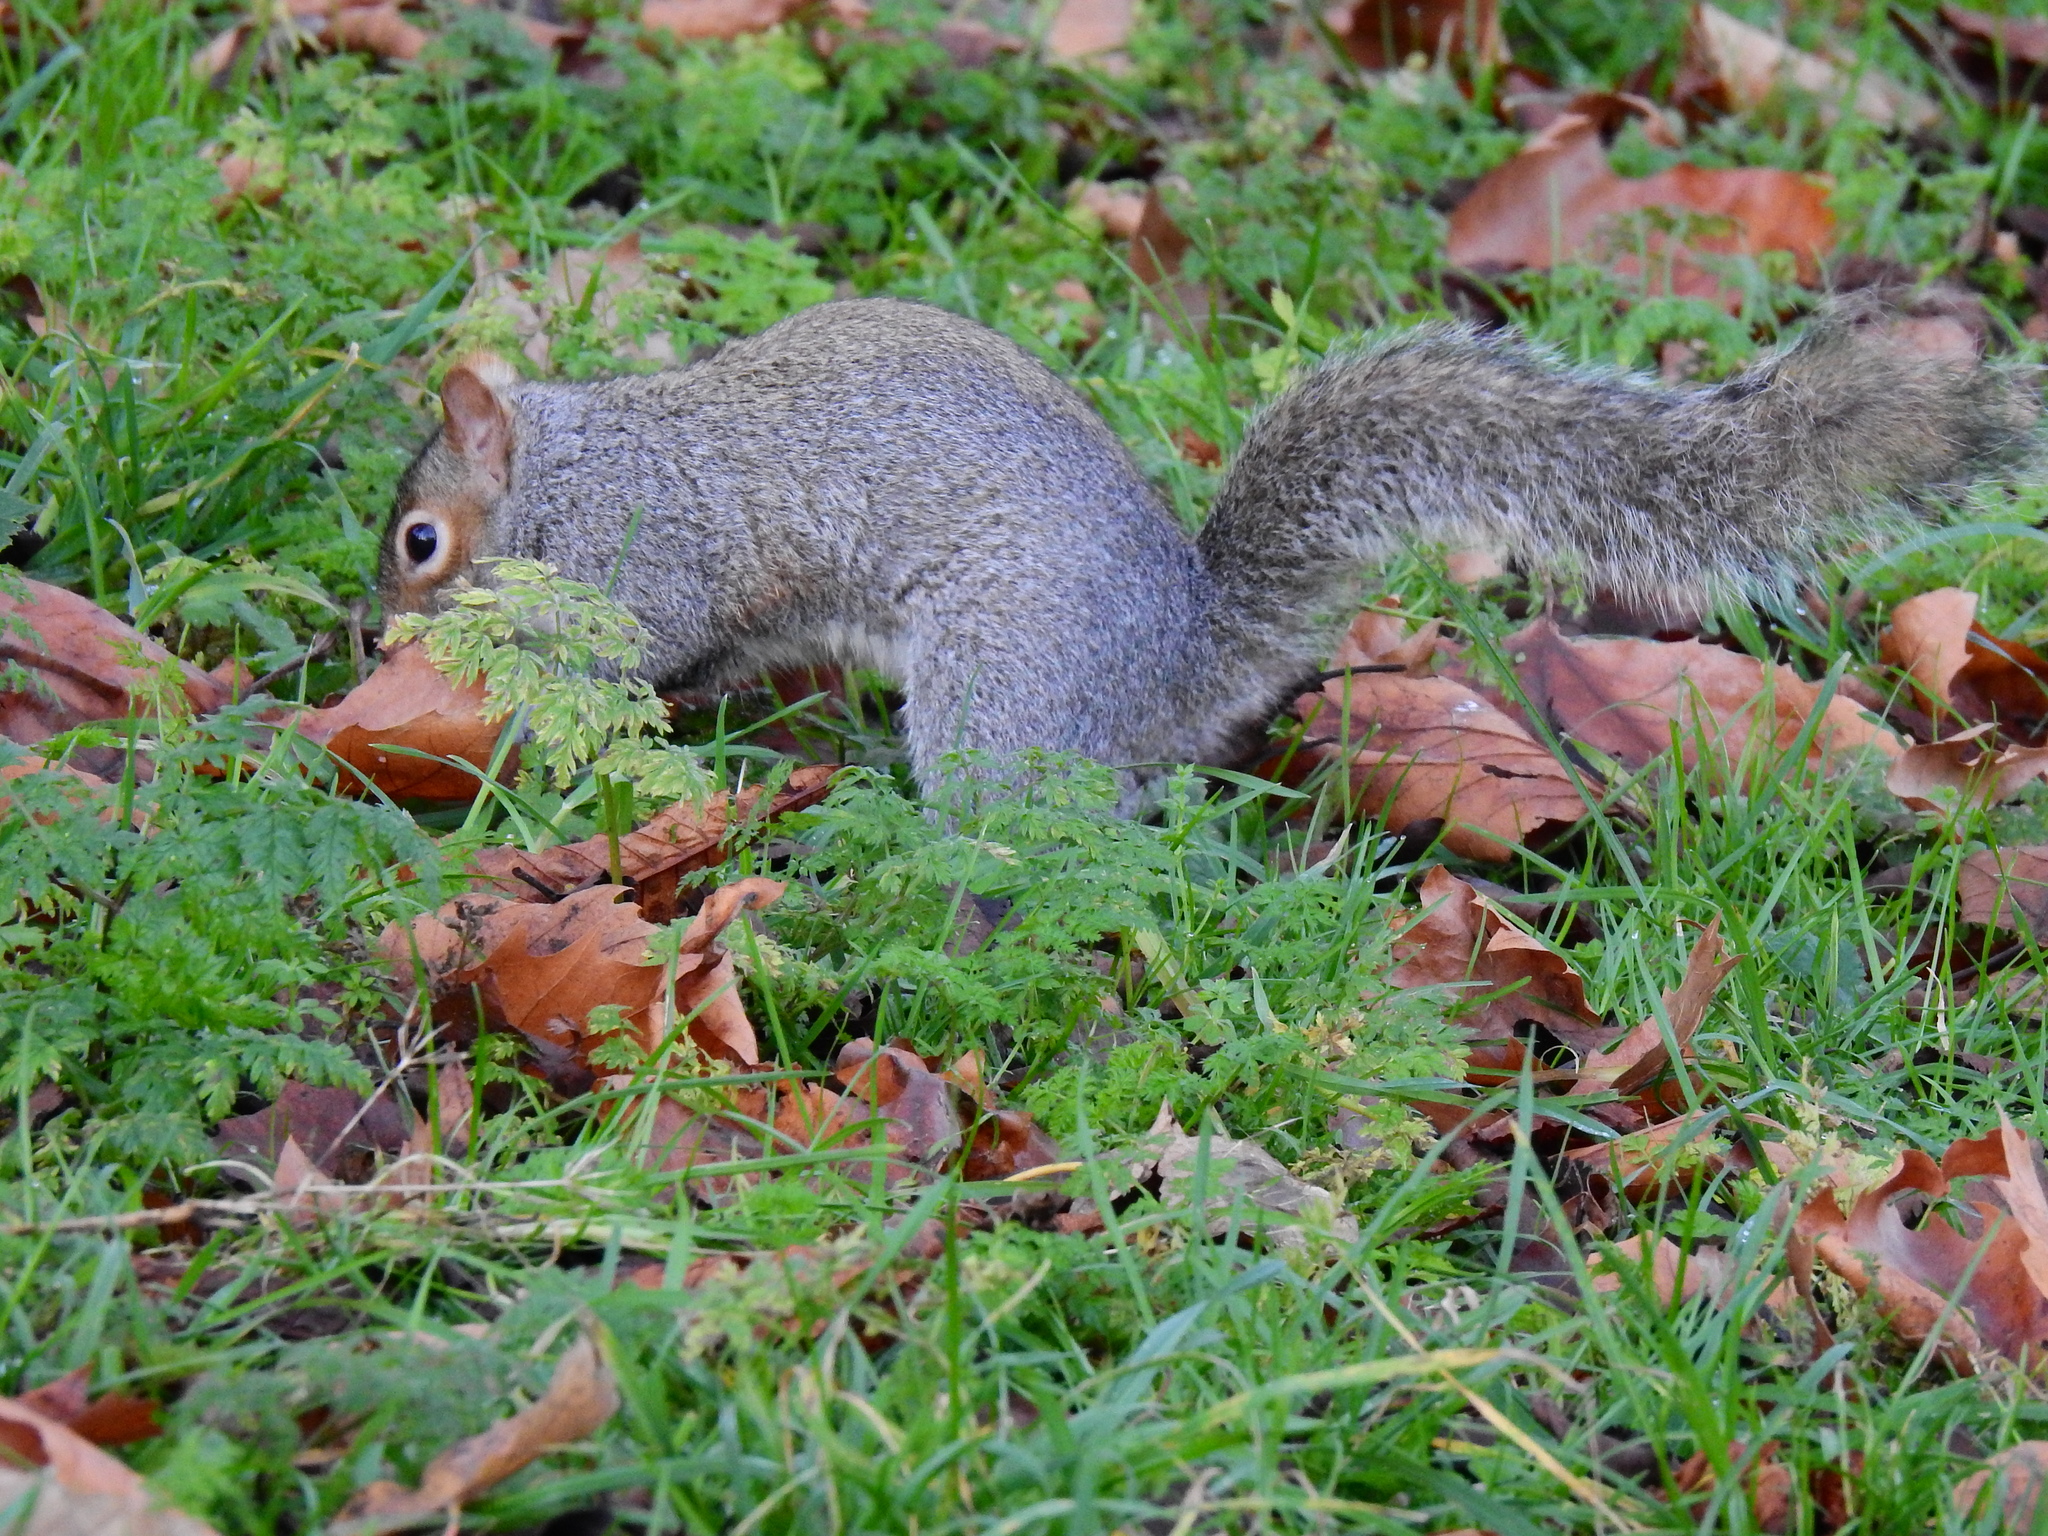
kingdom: Animalia
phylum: Chordata
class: Mammalia
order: Rodentia
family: Sciuridae
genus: Sciurus
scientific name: Sciurus carolinensis
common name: Eastern gray squirrel
